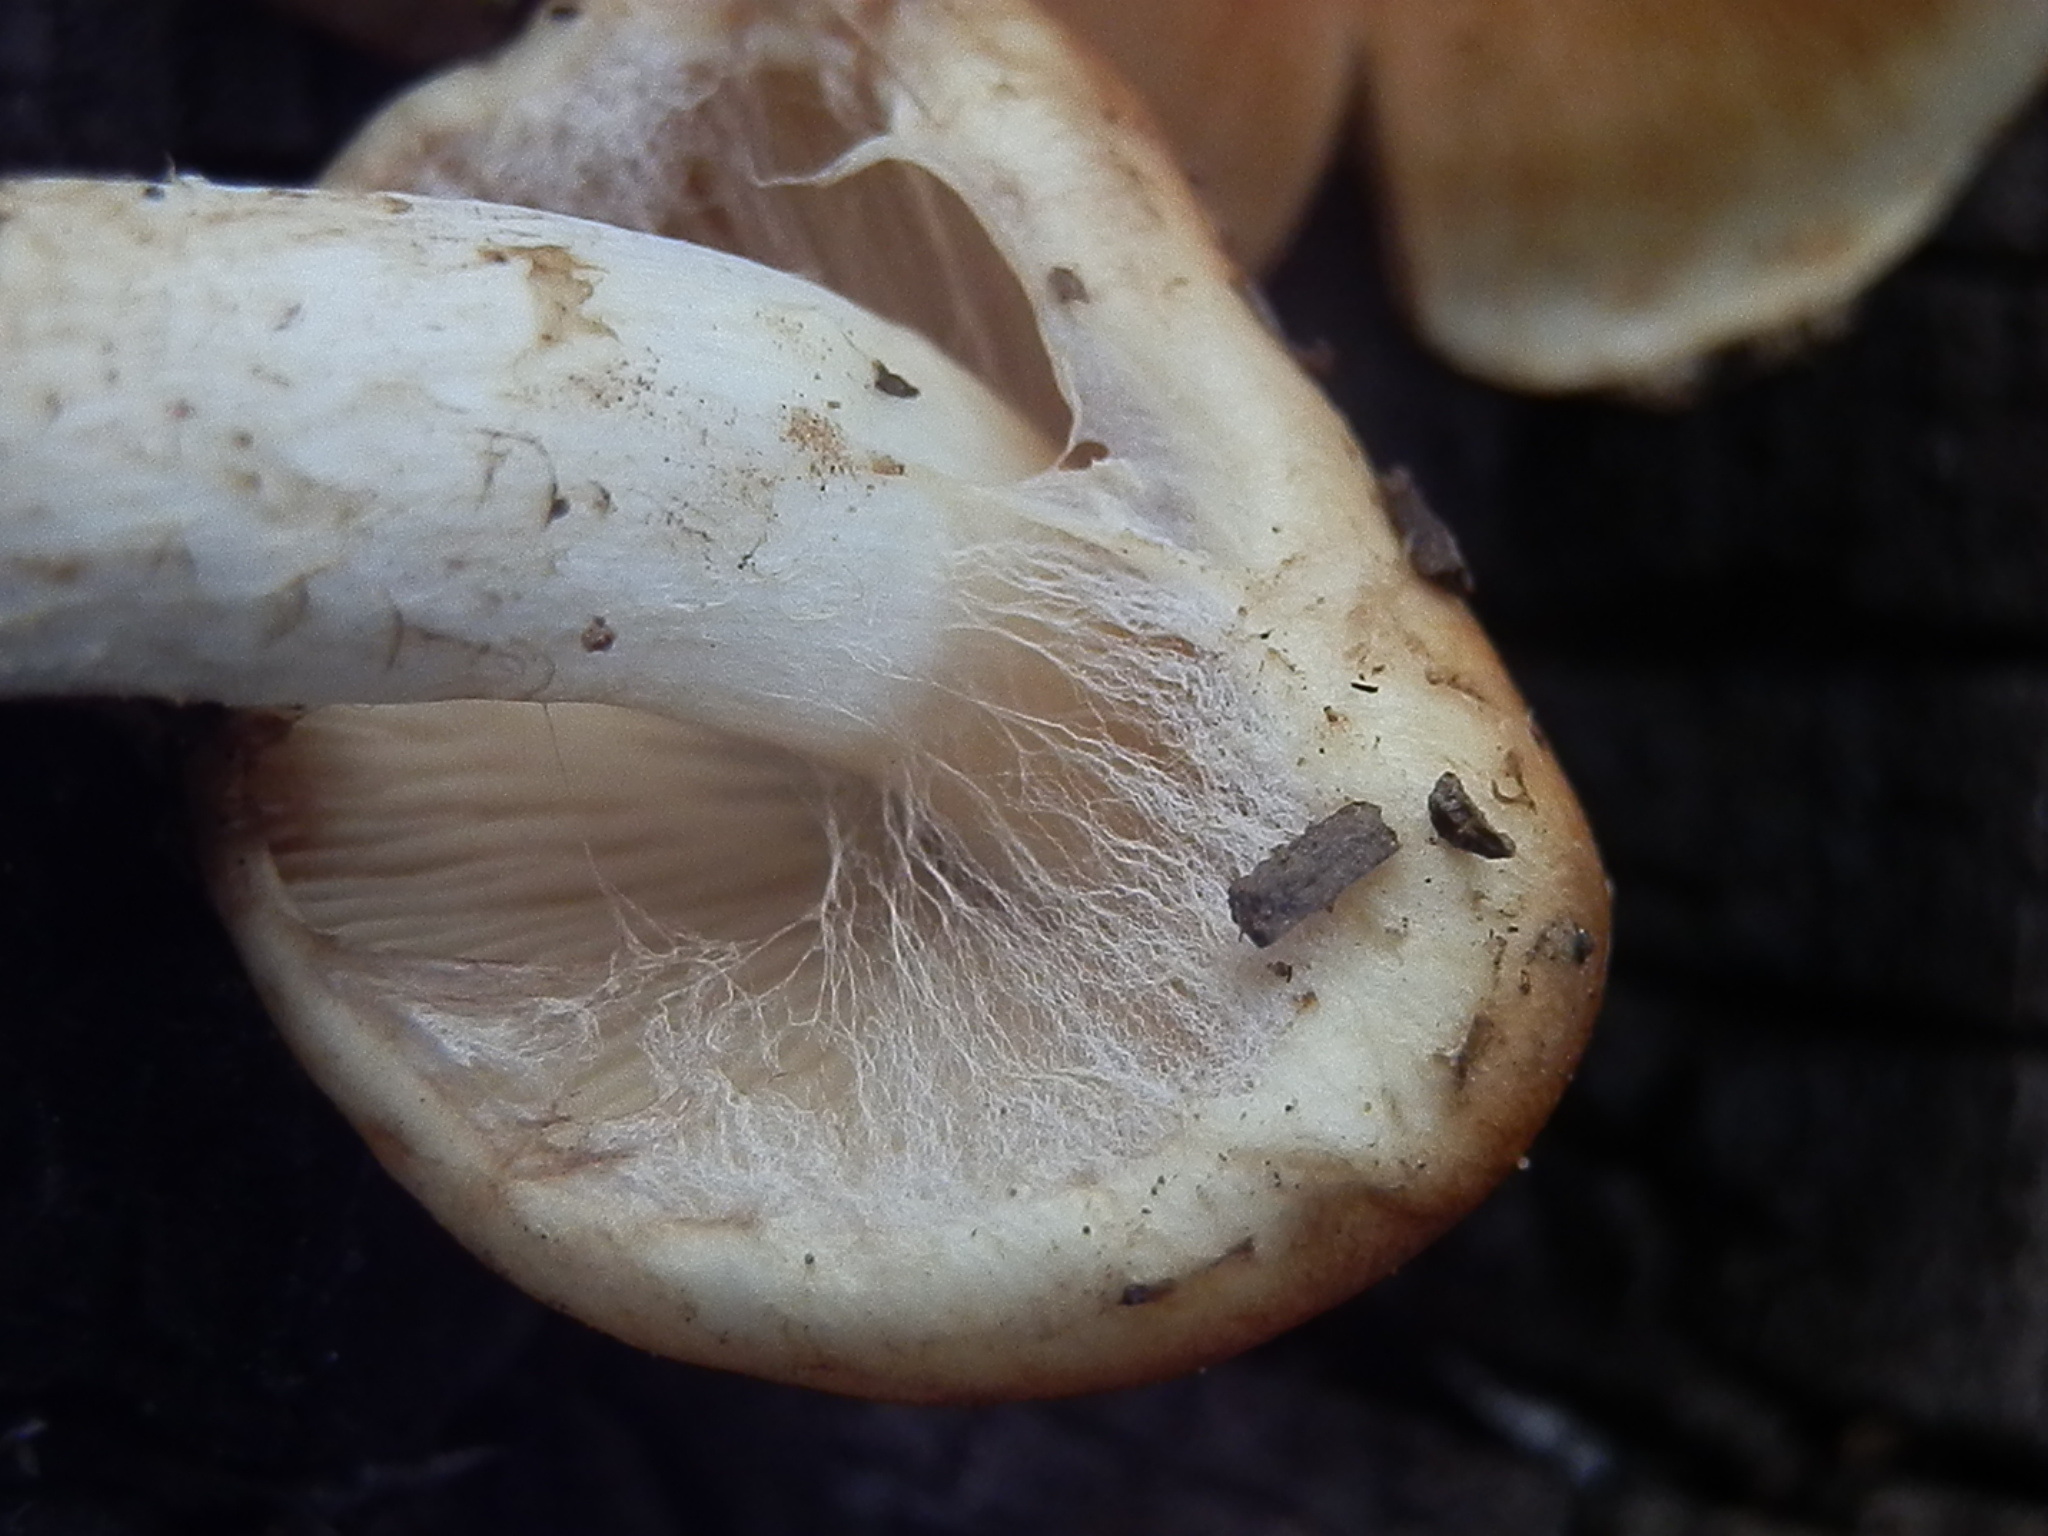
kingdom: Fungi
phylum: Basidiomycota
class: Agaricomycetes
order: Agaricales
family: Strophariaceae
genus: Pholiota
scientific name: Pholiota rufodisca
